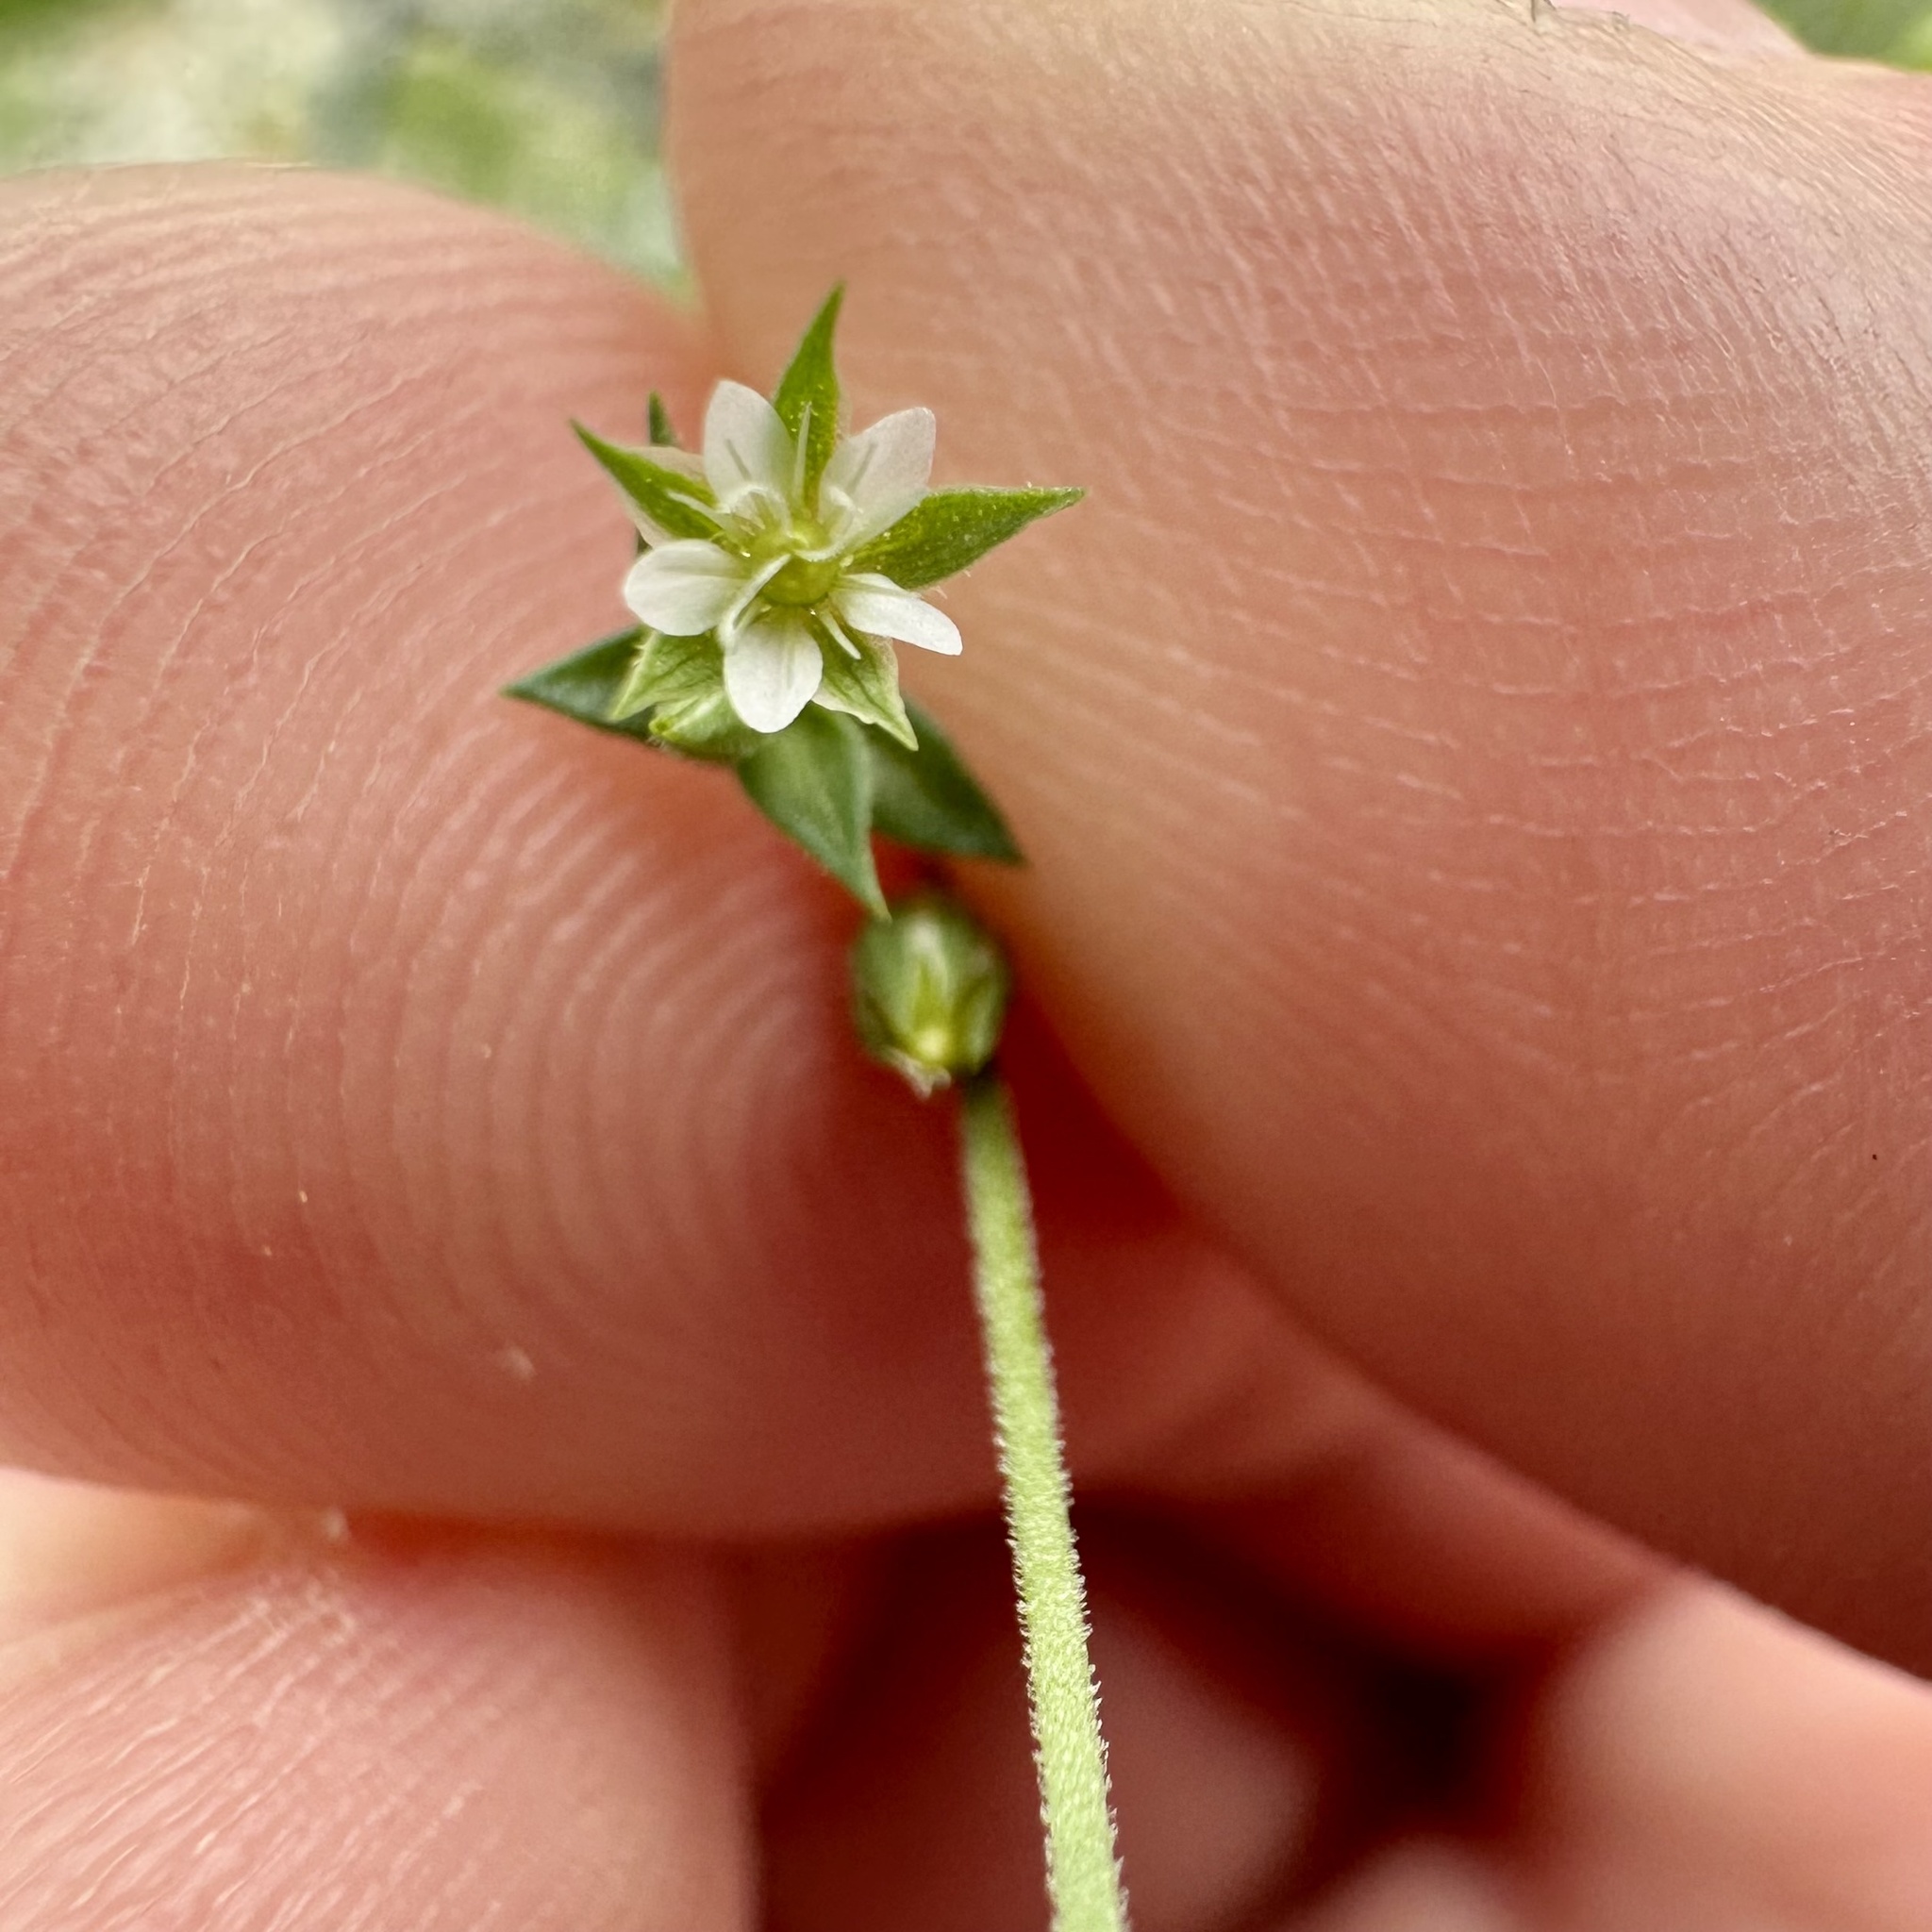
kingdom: Plantae
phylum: Tracheophyta
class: Magnoliopsida
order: Caryophyllales
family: Caryophyllaceae
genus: Arenaria
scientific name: Arenaria serpyllifolia
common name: Thyme-leaved sandwort
